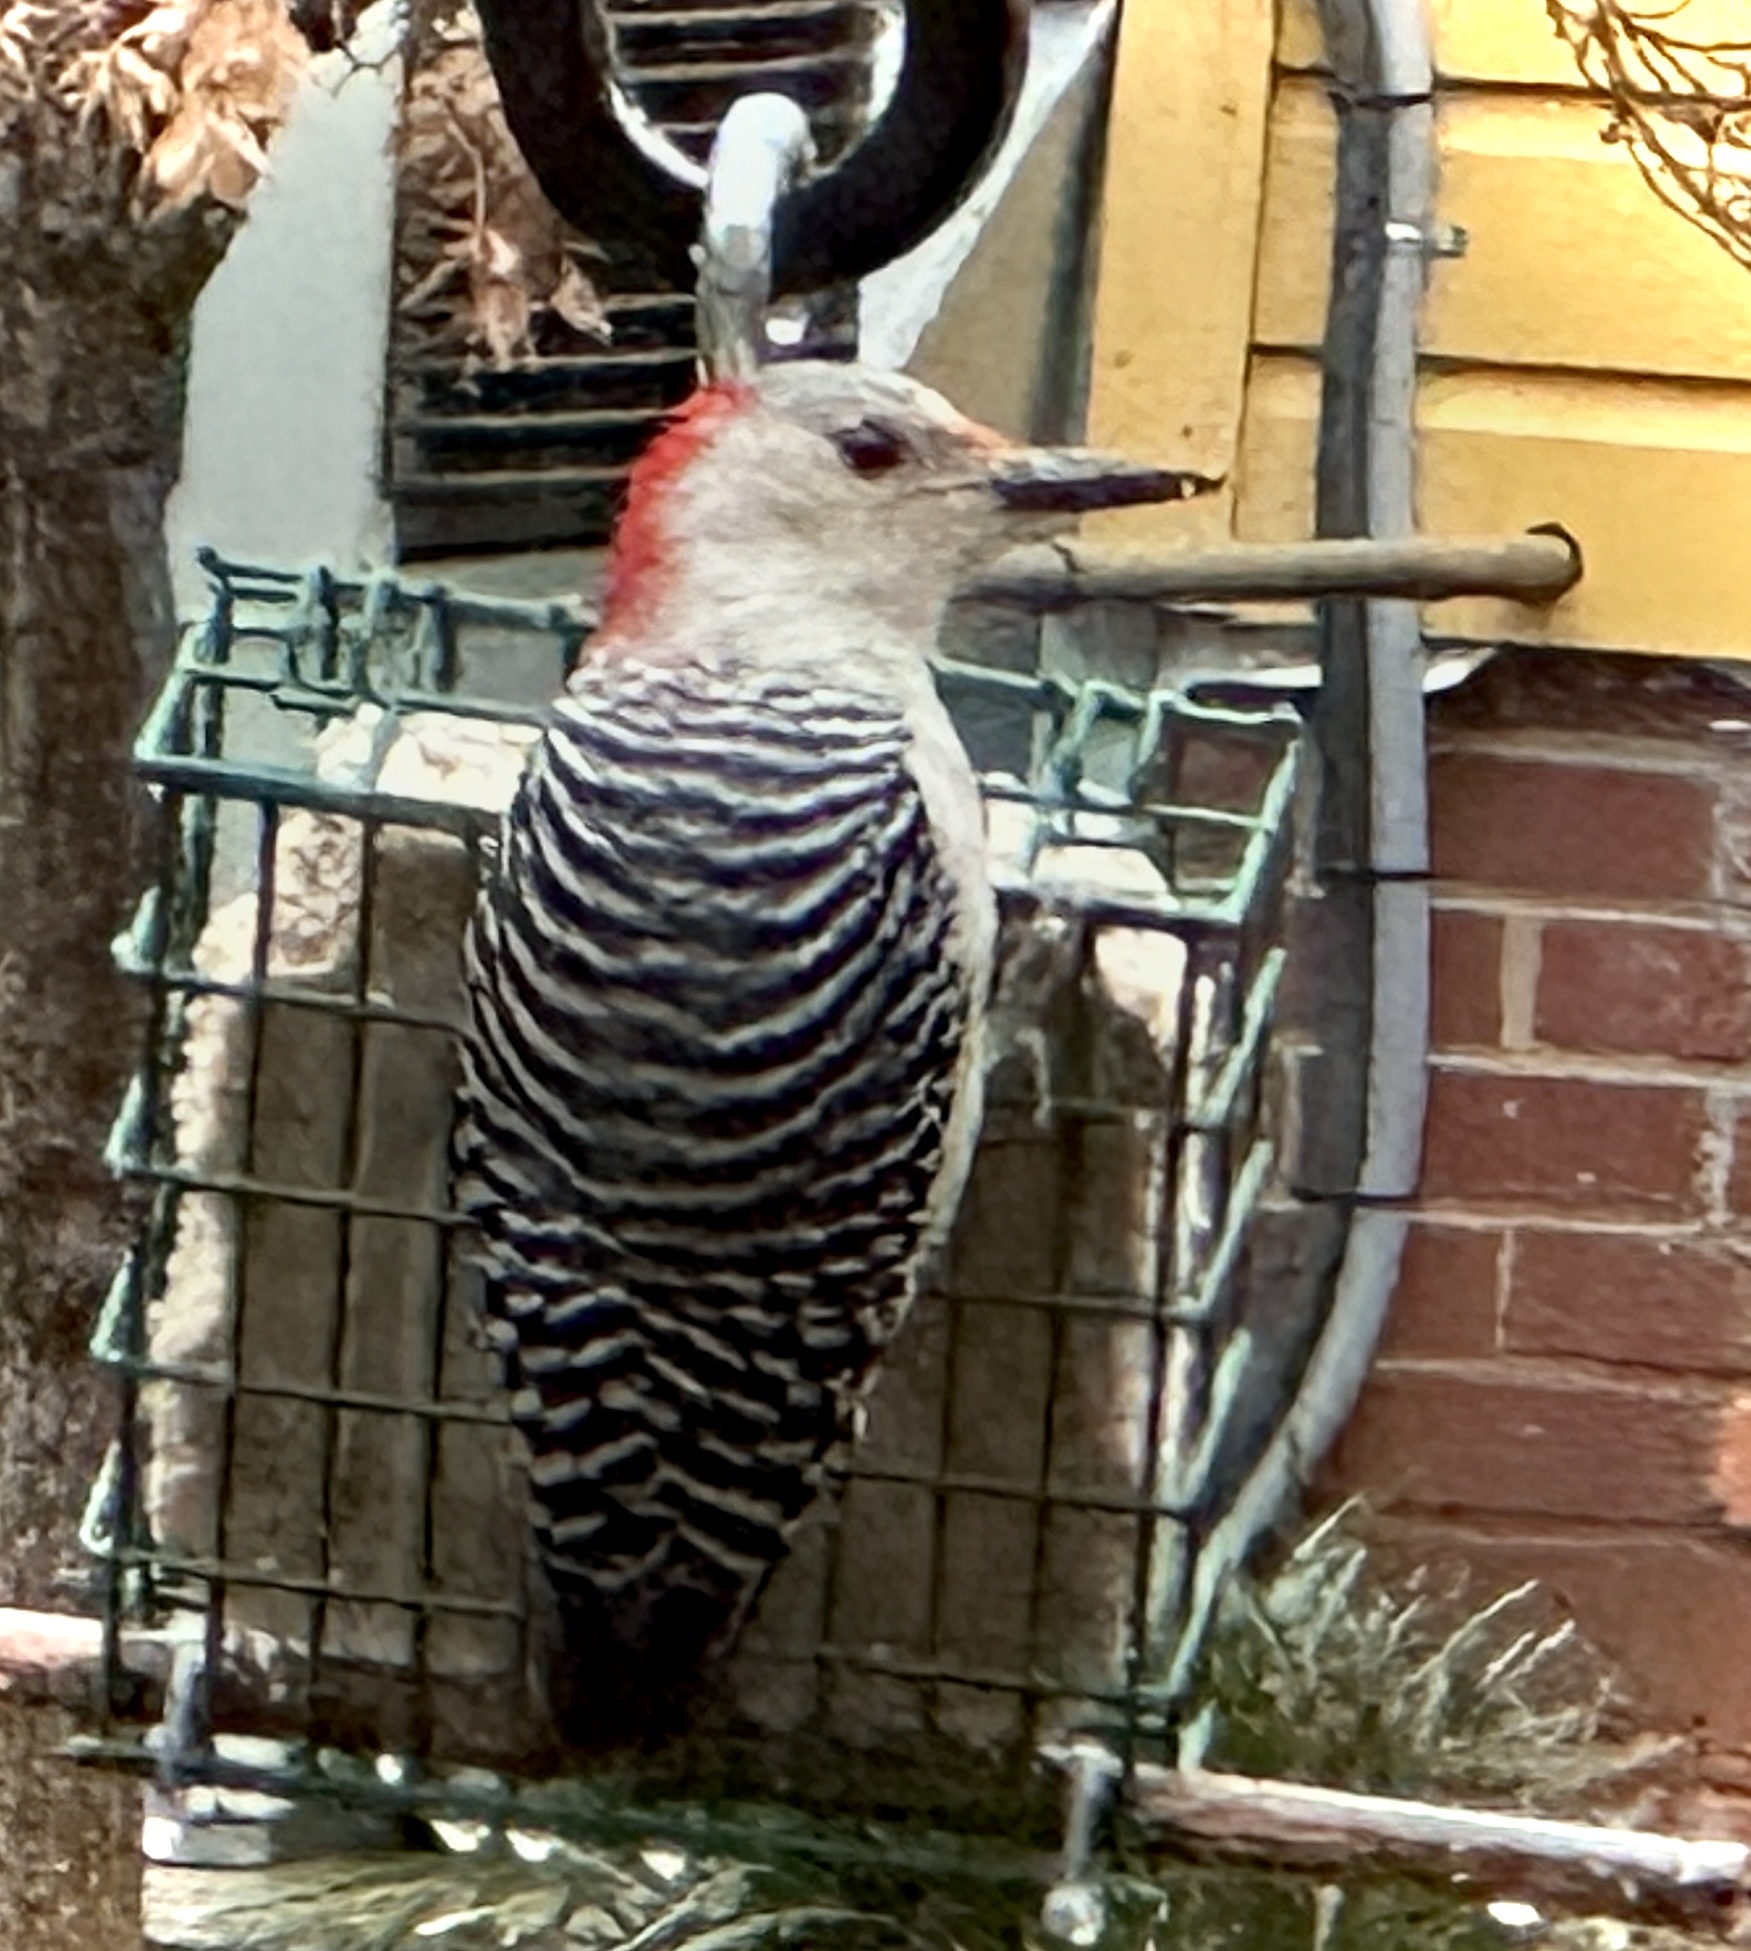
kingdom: Animalia
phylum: Chordata
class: Aves
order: Piciformes
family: Picidae
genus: Melanerpes
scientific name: Melanerpes carolinus
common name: Red-bellied woodpecker
